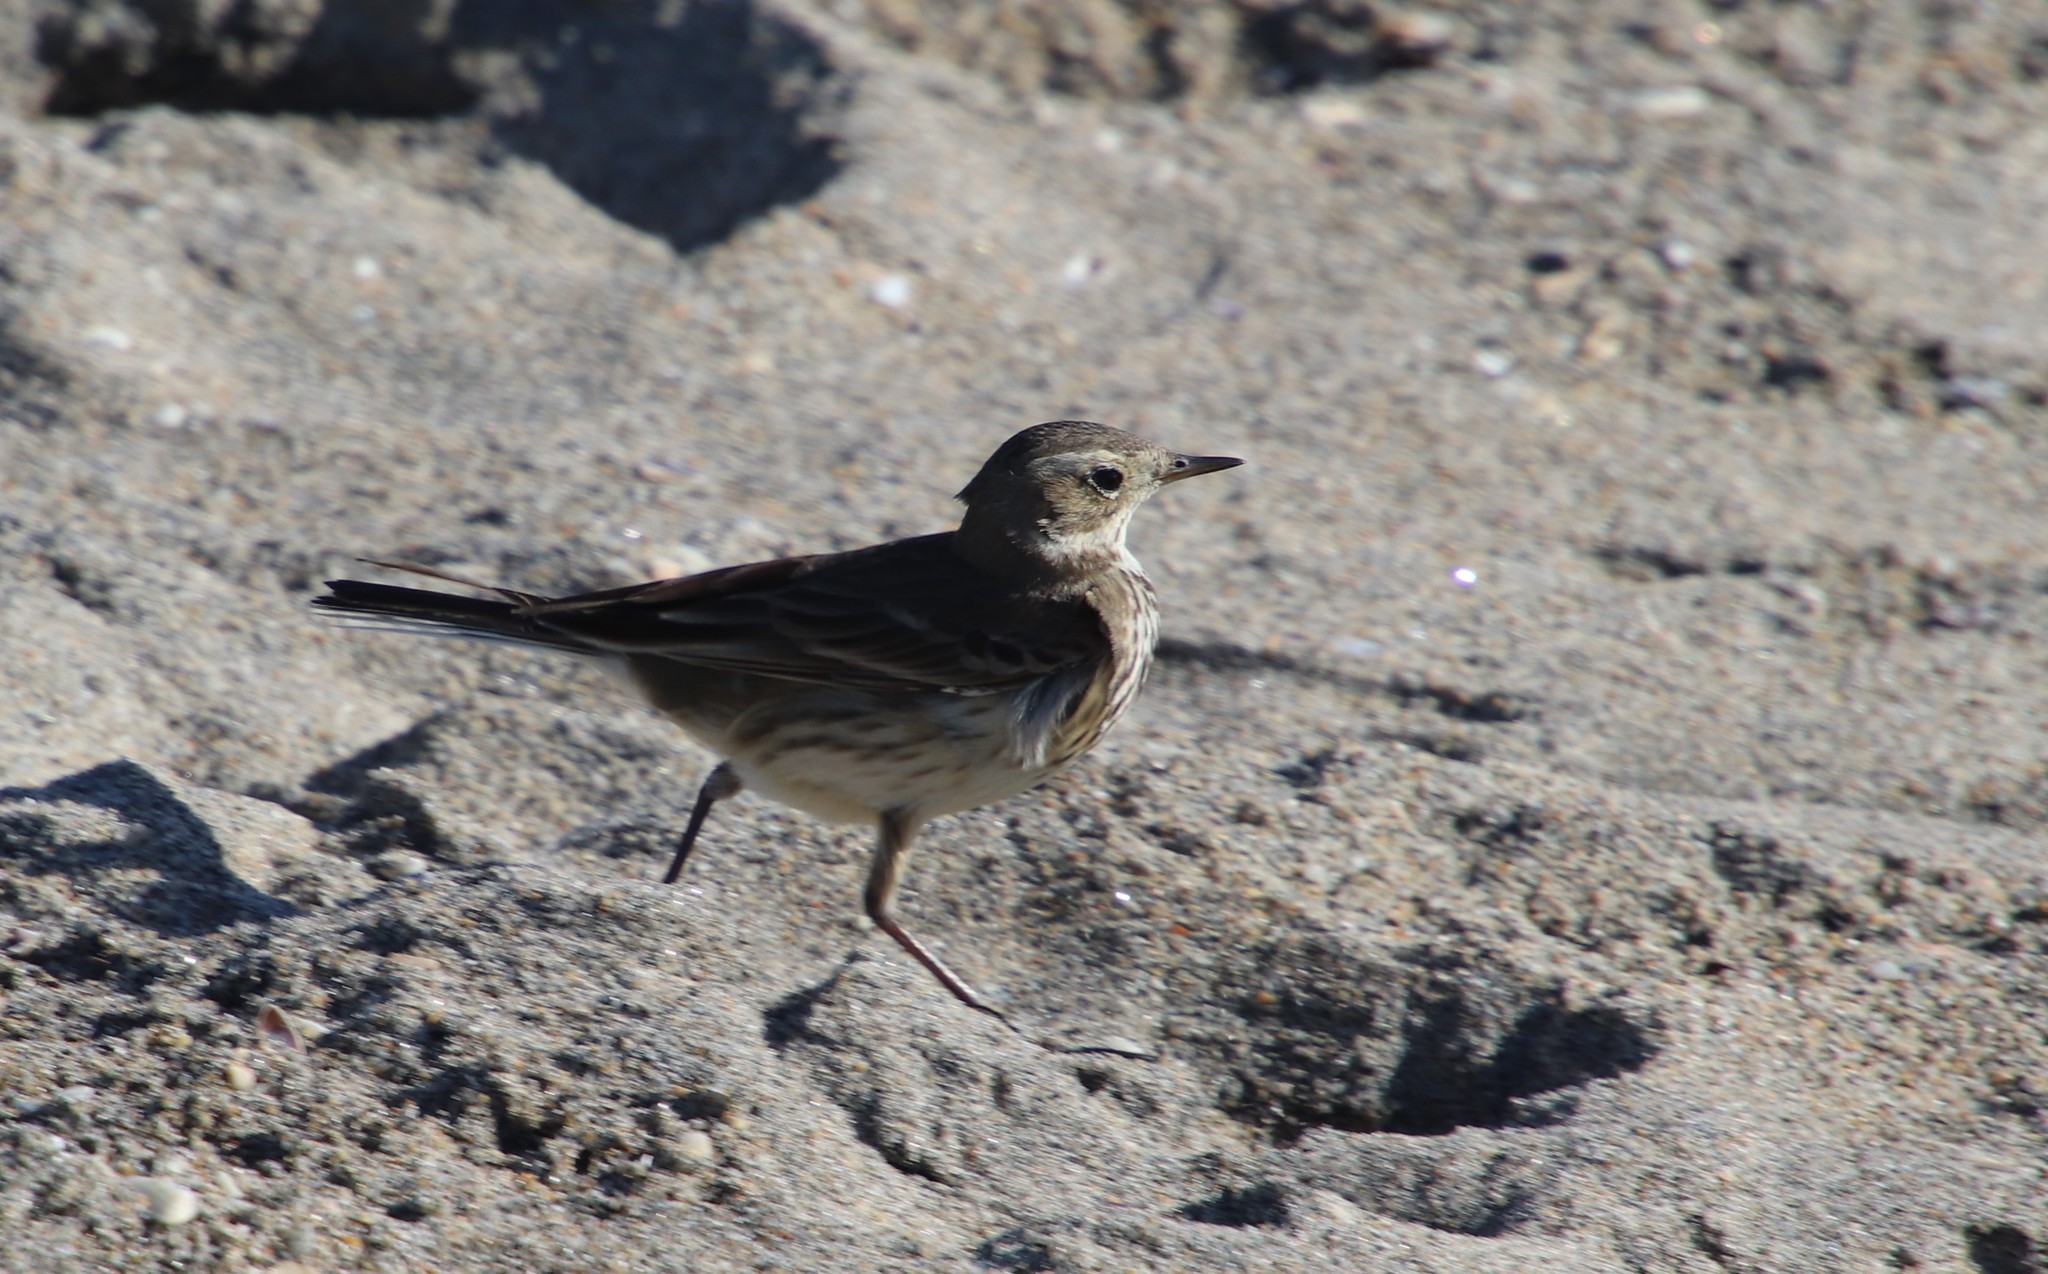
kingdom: Animalia
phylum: Chordata
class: Aves
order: Passeriformes
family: Motacillidae
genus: Anthus
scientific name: Anthus rubescens
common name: Buff-bellied pipit
